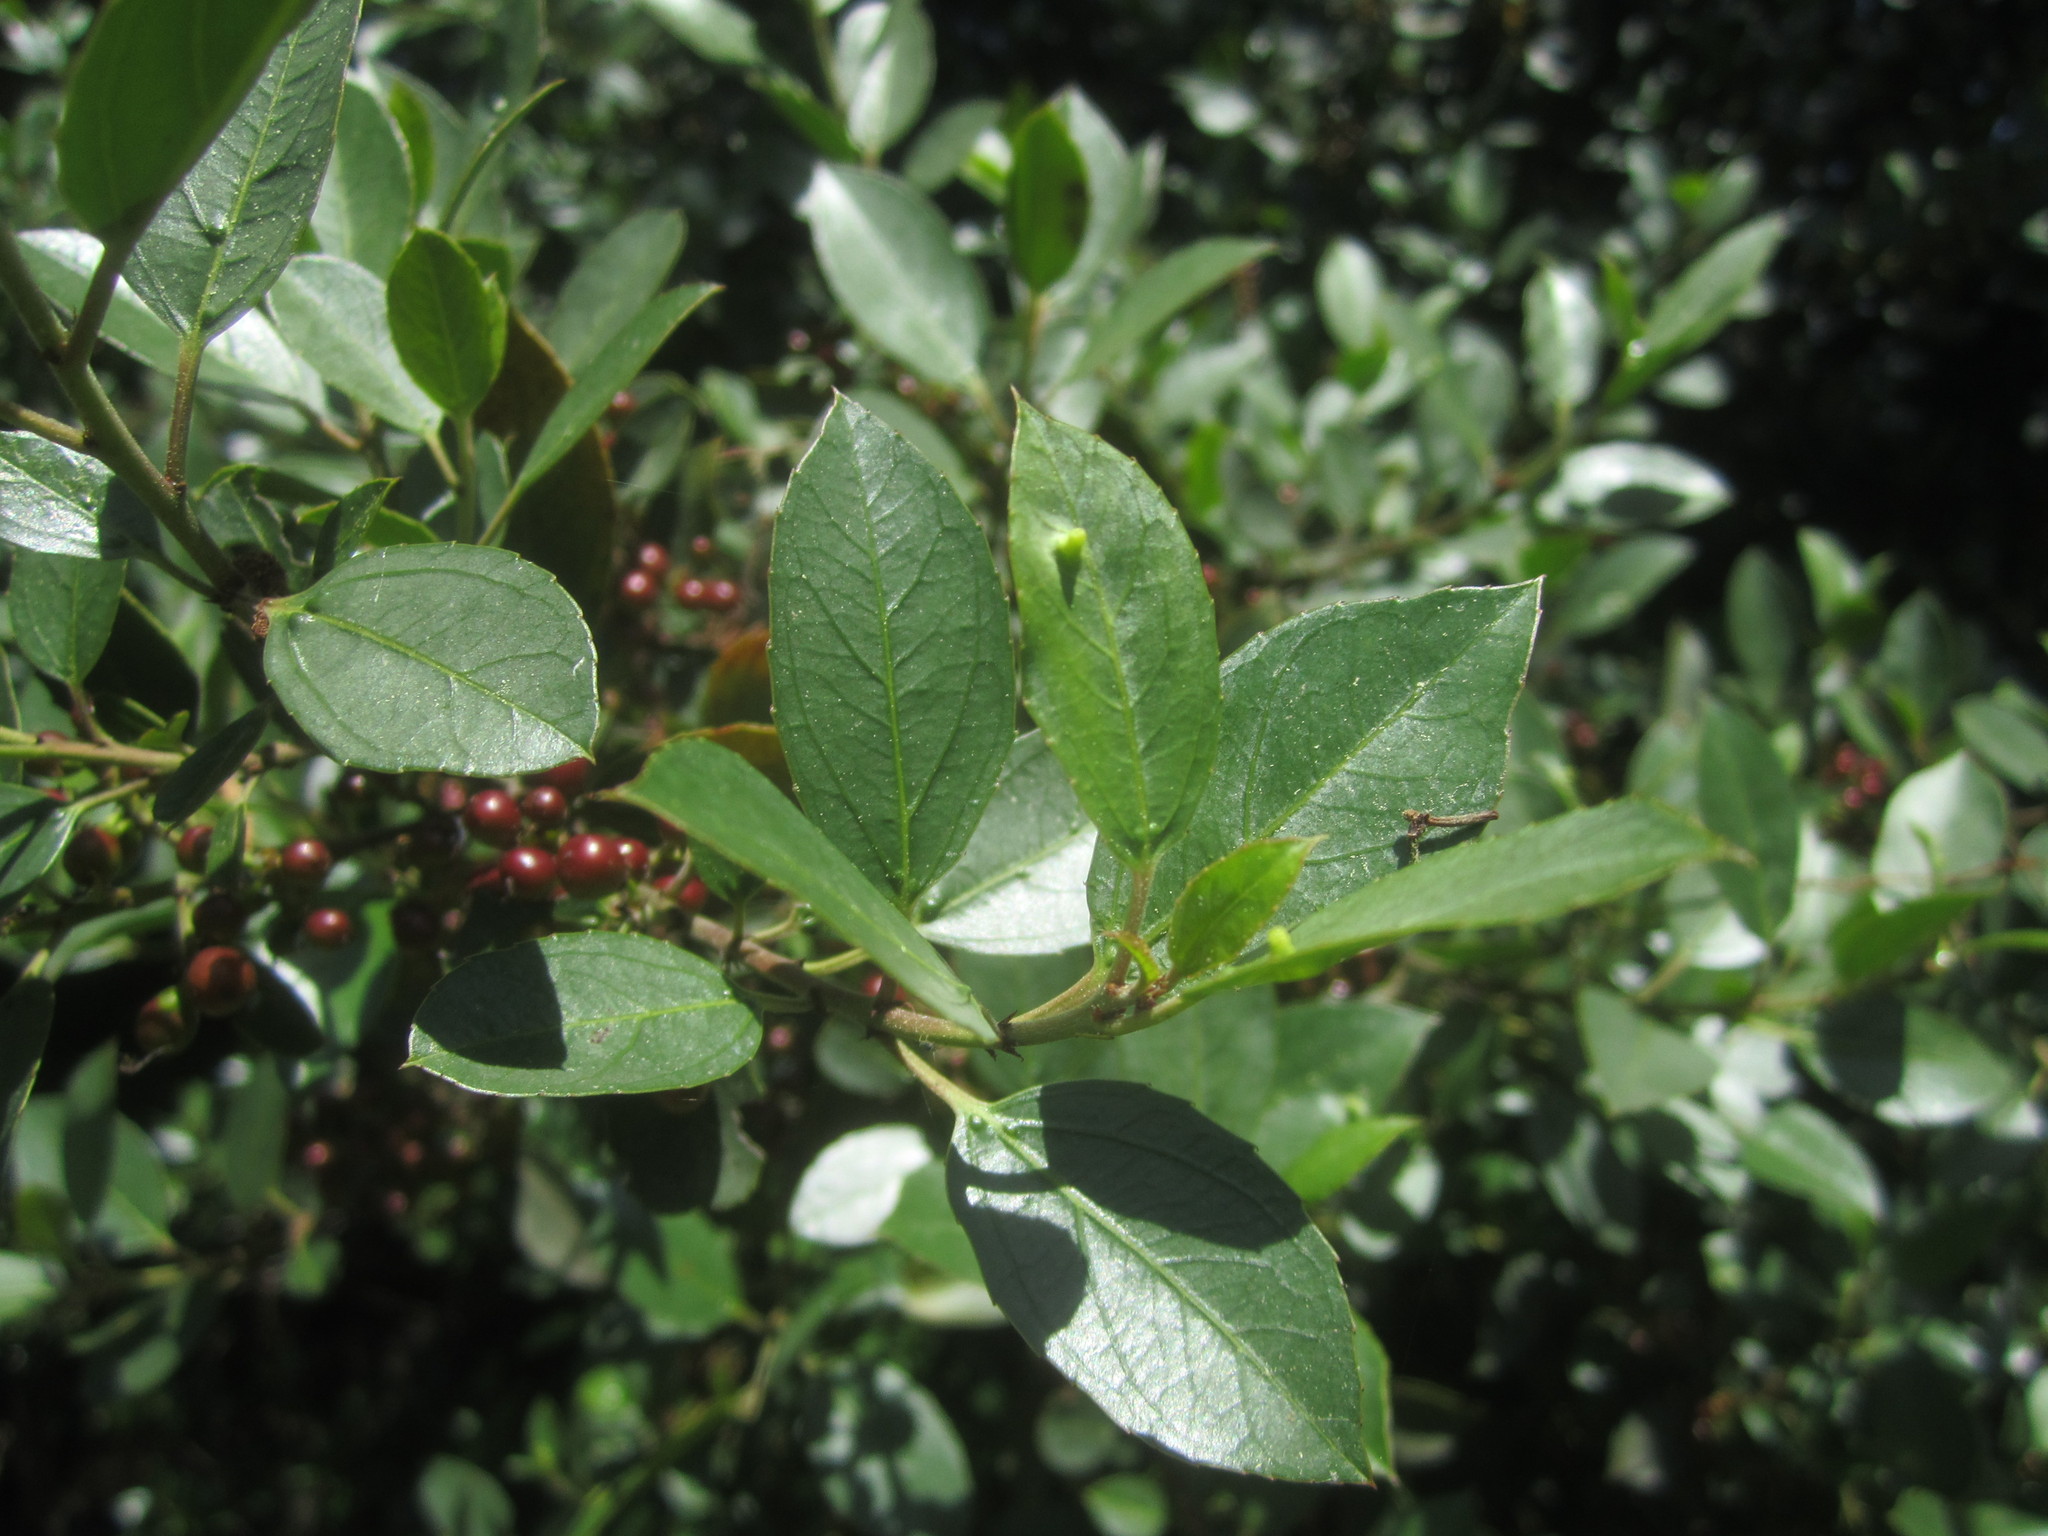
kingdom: Plantae
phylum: Tracheophyta
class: Magnoliopsida
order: Rosales
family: Rhamnaceae
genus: Rhamnus
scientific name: Rhamnus alaternus
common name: Mediterranean buckthorn
